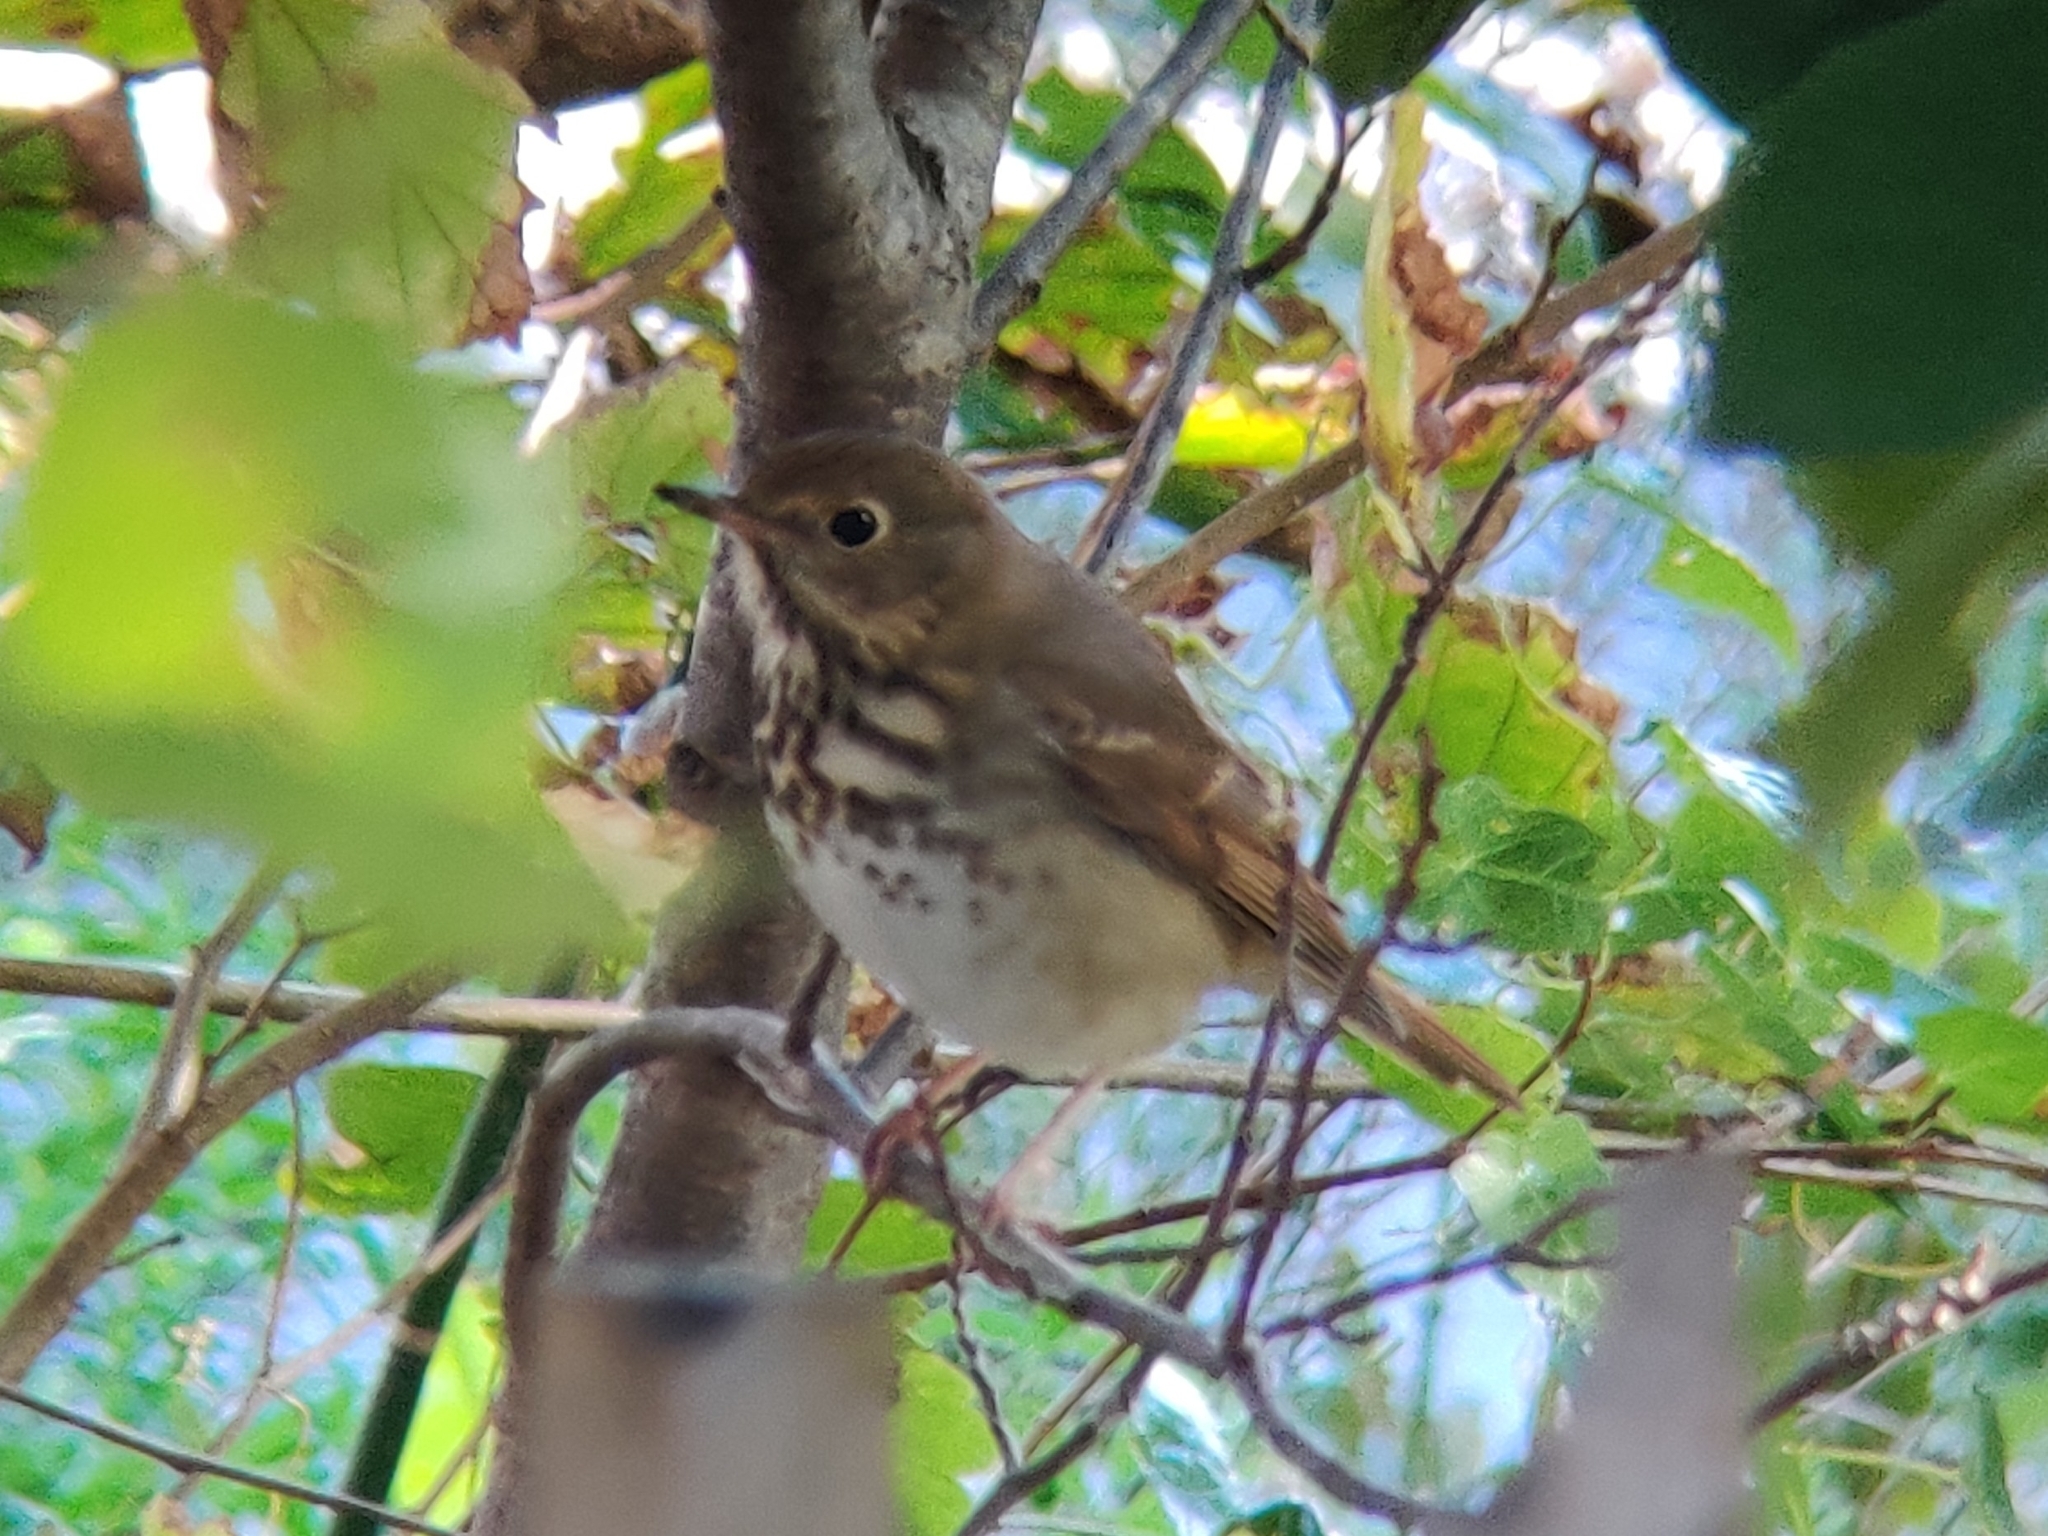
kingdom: Animalia
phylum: Chordata
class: Aves
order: Passeriformes
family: Turdidae
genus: Catharus
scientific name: Catharus guttatus
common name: Hermit thrush
